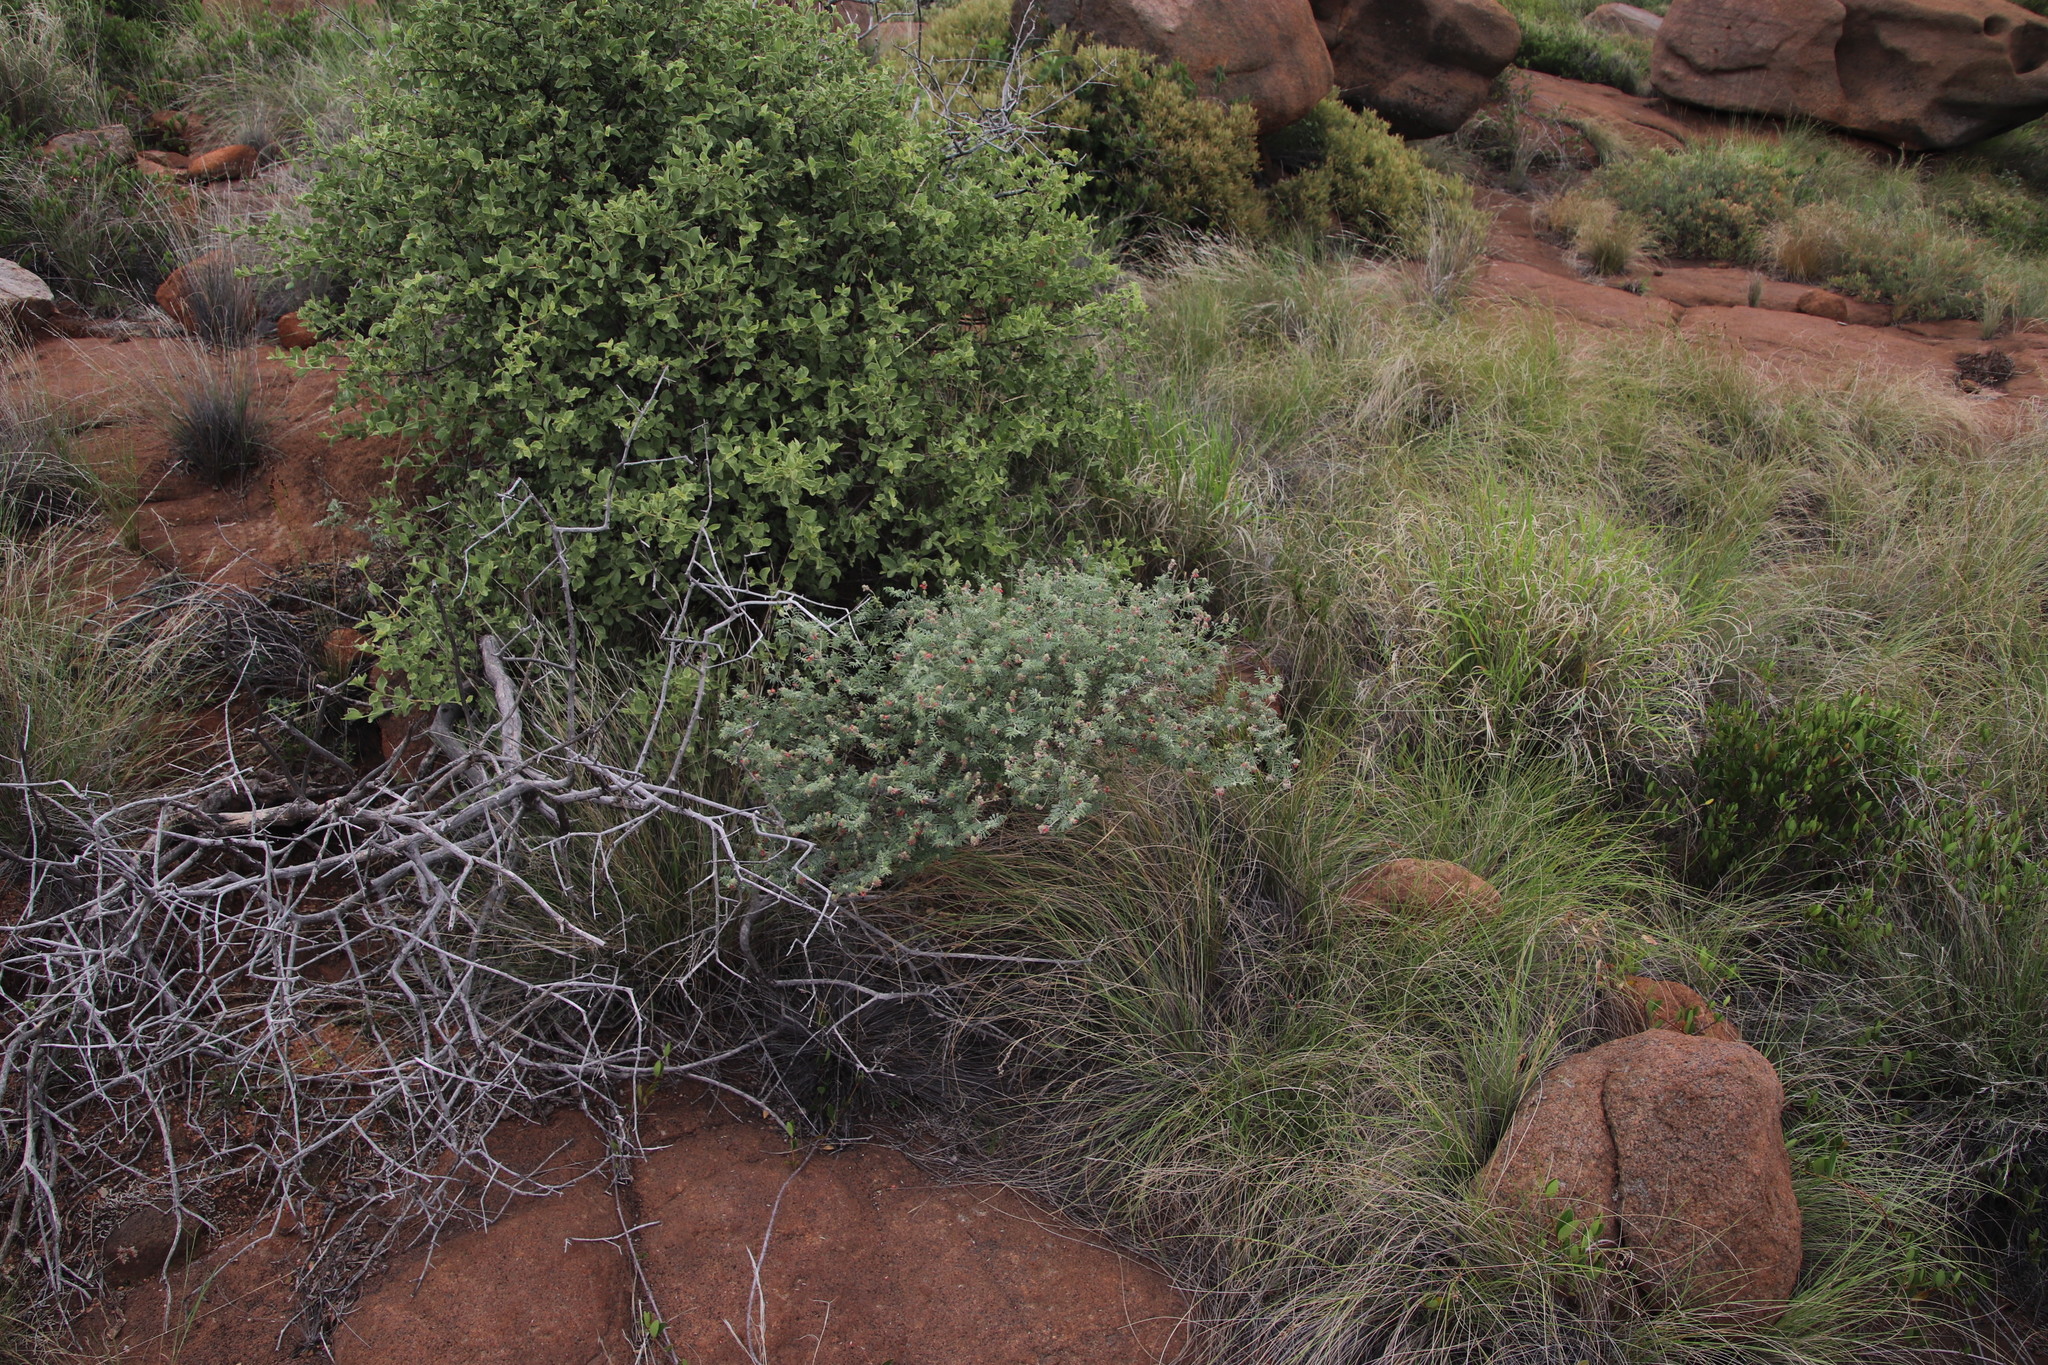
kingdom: Plantae
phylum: Tracheophyta
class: Magnoliopsida
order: Fabales
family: Fabaceae
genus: Indigofera
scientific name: Indigofera melanadenia
